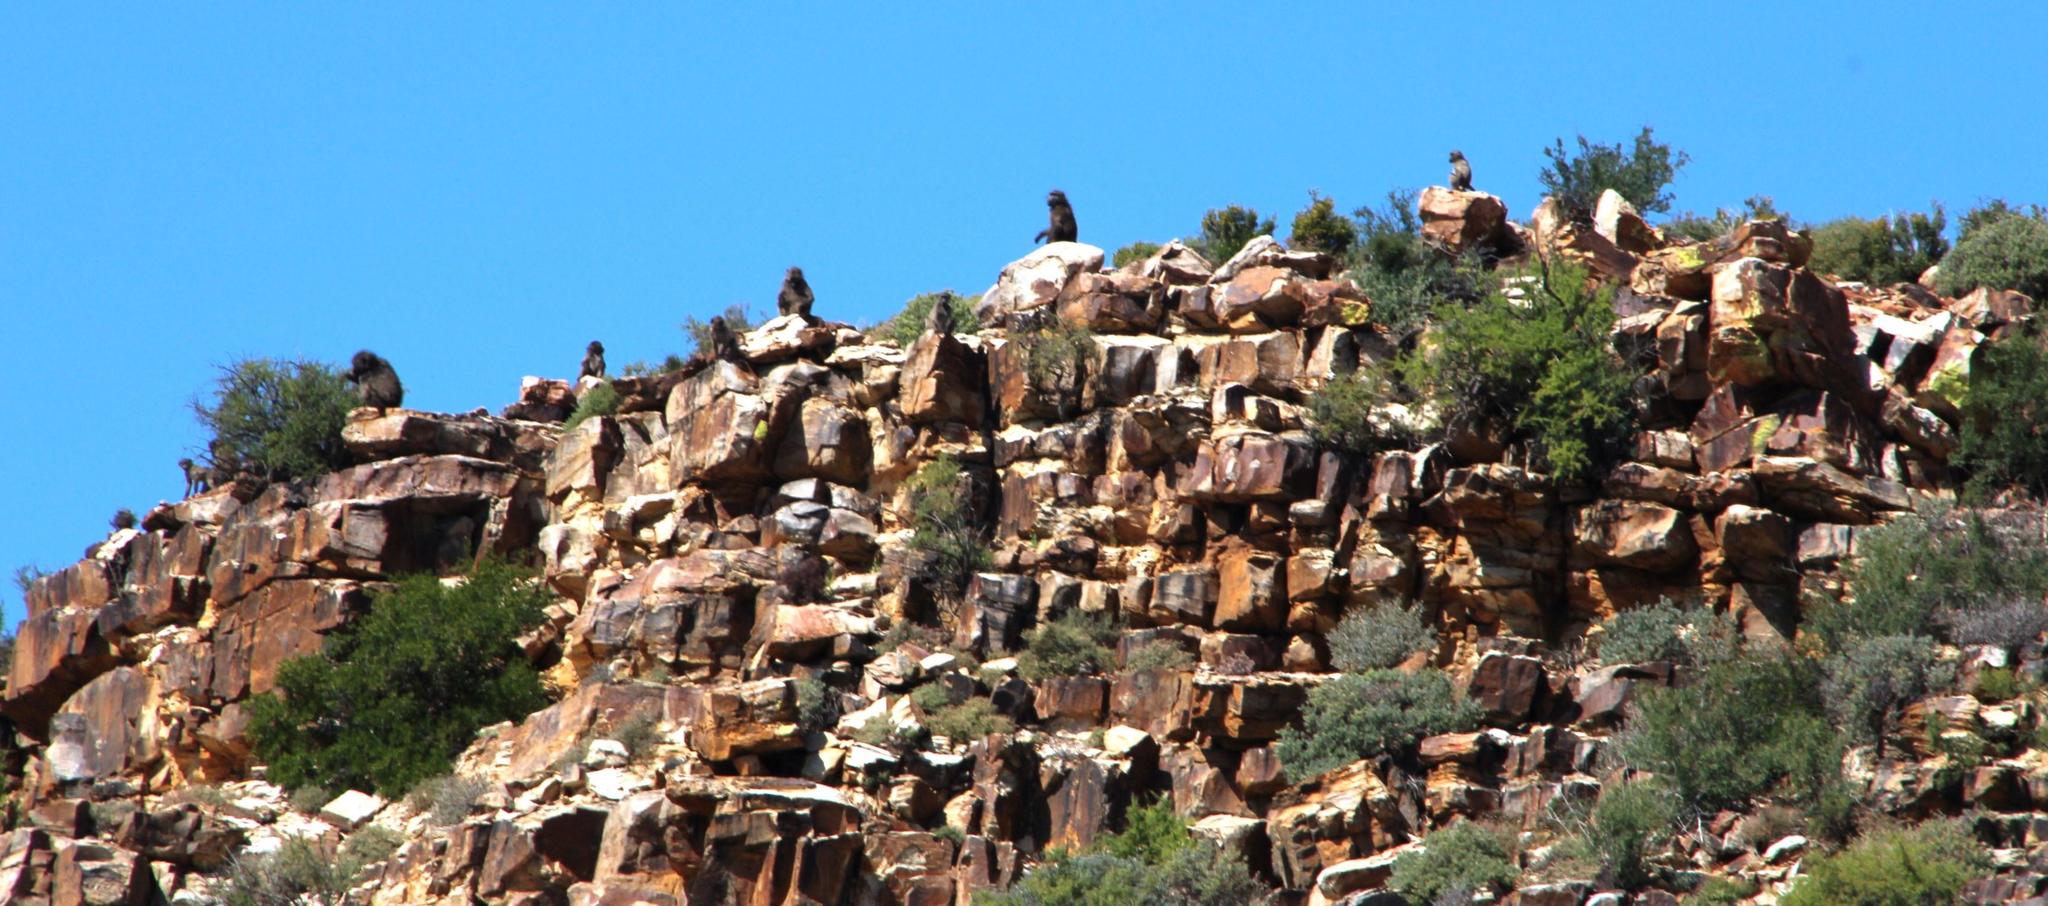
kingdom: Animalia
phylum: Chordata
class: Mammalia
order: Primates
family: Cercopithecidae
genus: Papio
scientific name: Papio ursinus
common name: Chacma baboon
